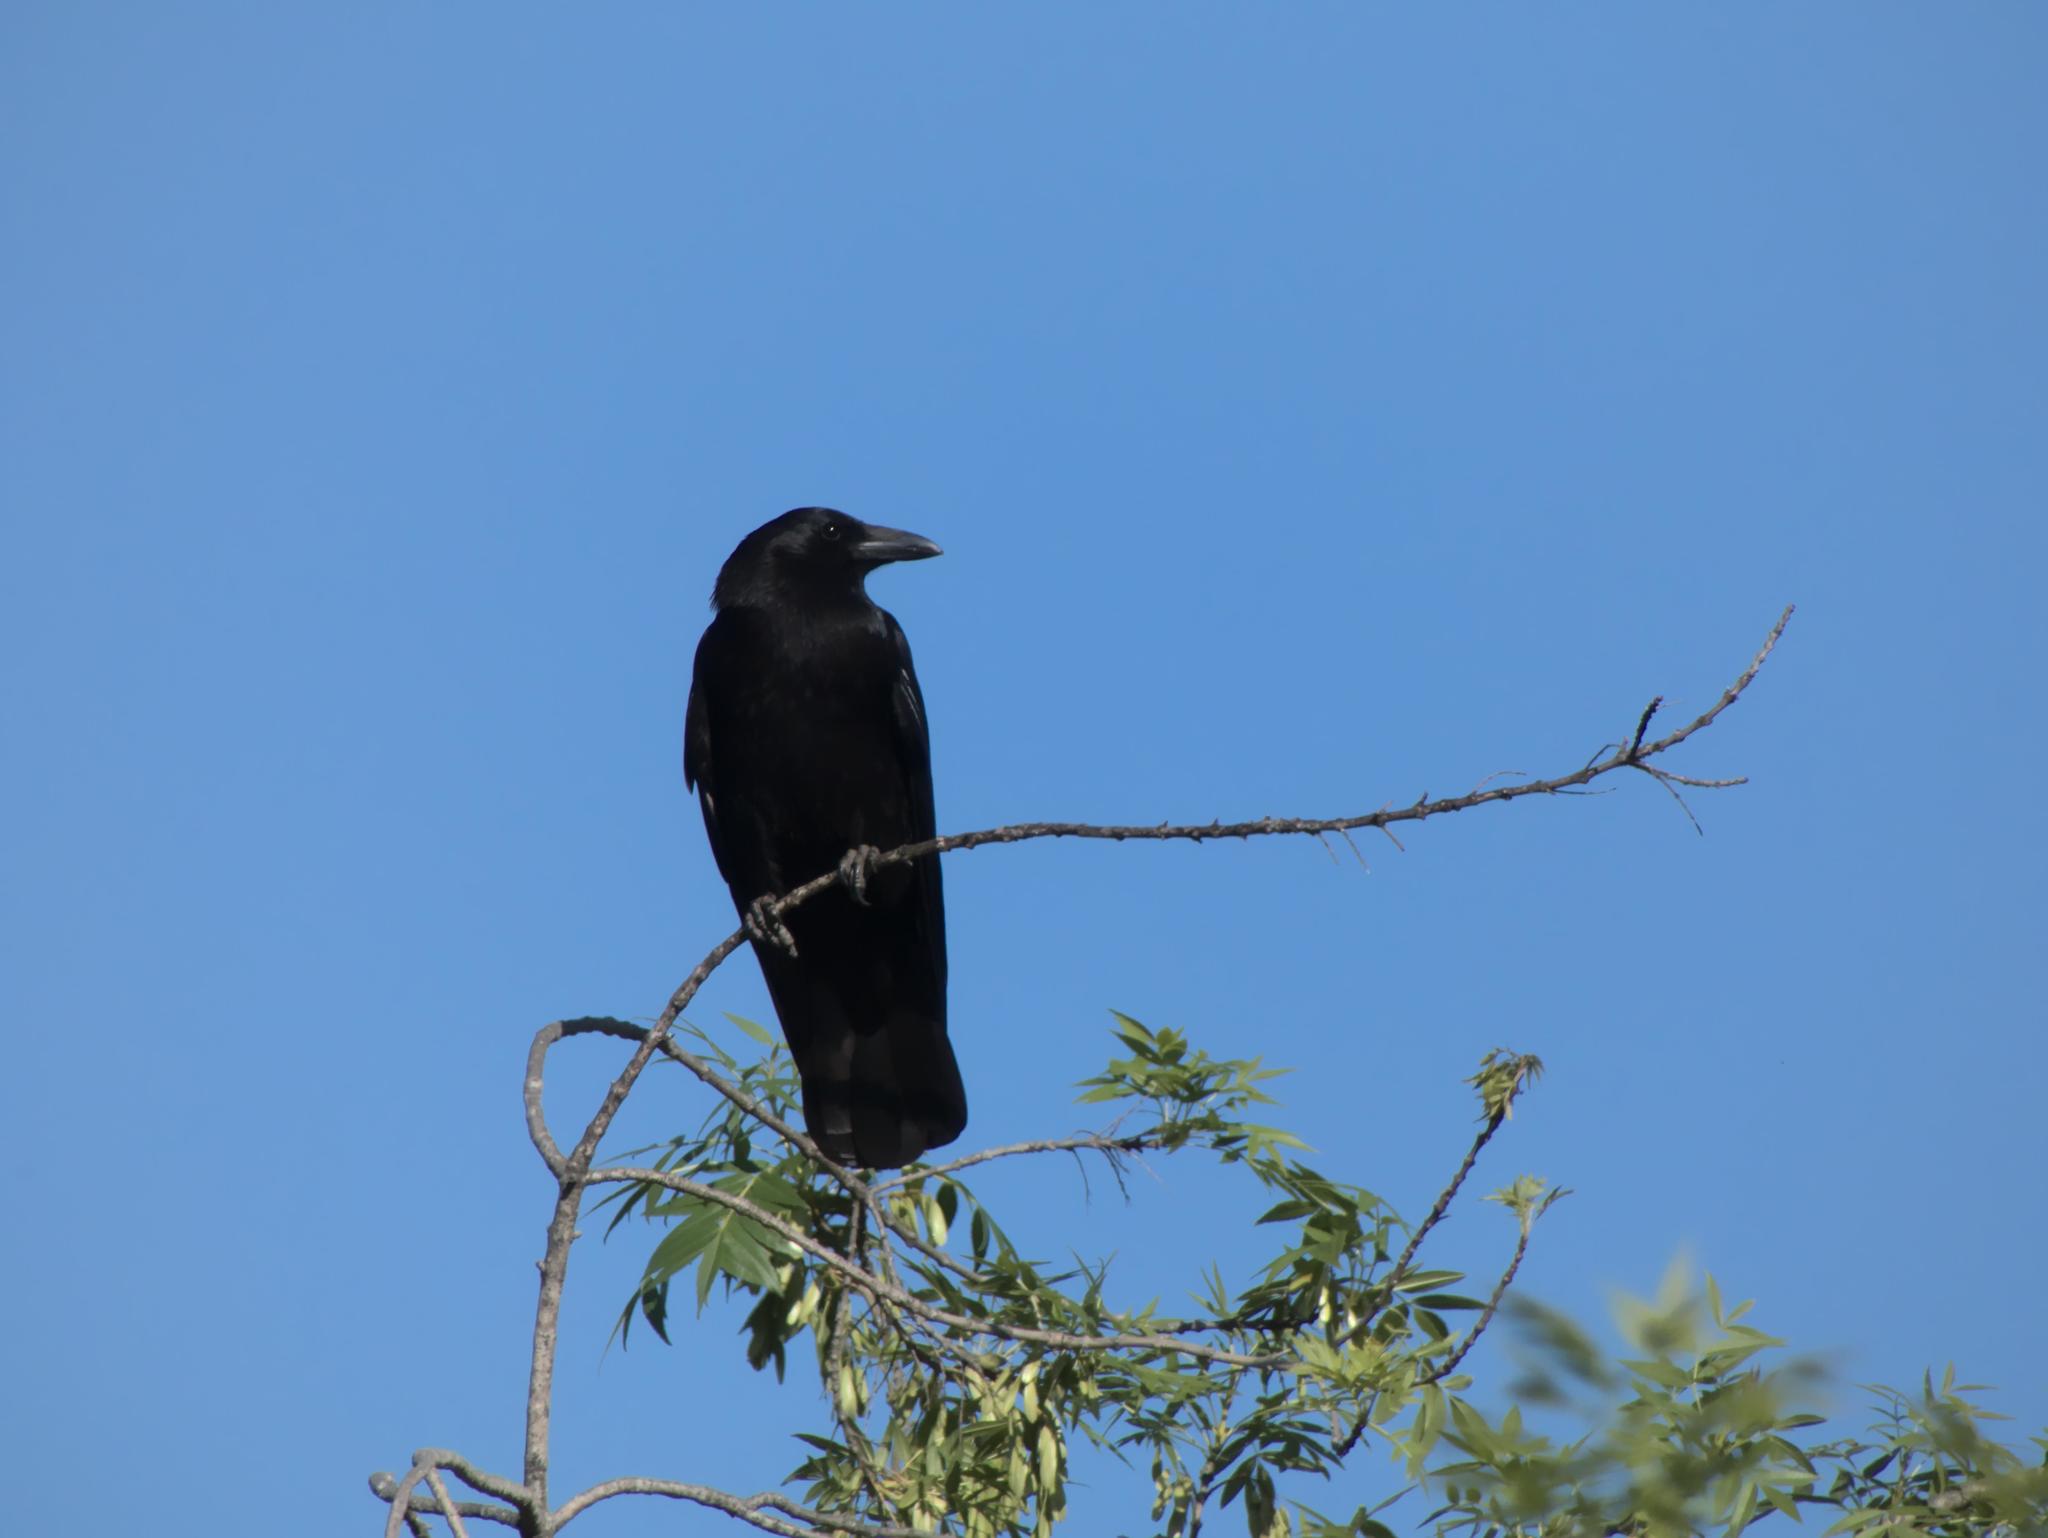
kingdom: Animalia
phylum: Chordata
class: Aves
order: Passeriformes
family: Corvidae
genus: Corvus
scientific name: Corvus corone
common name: Carrion crow
